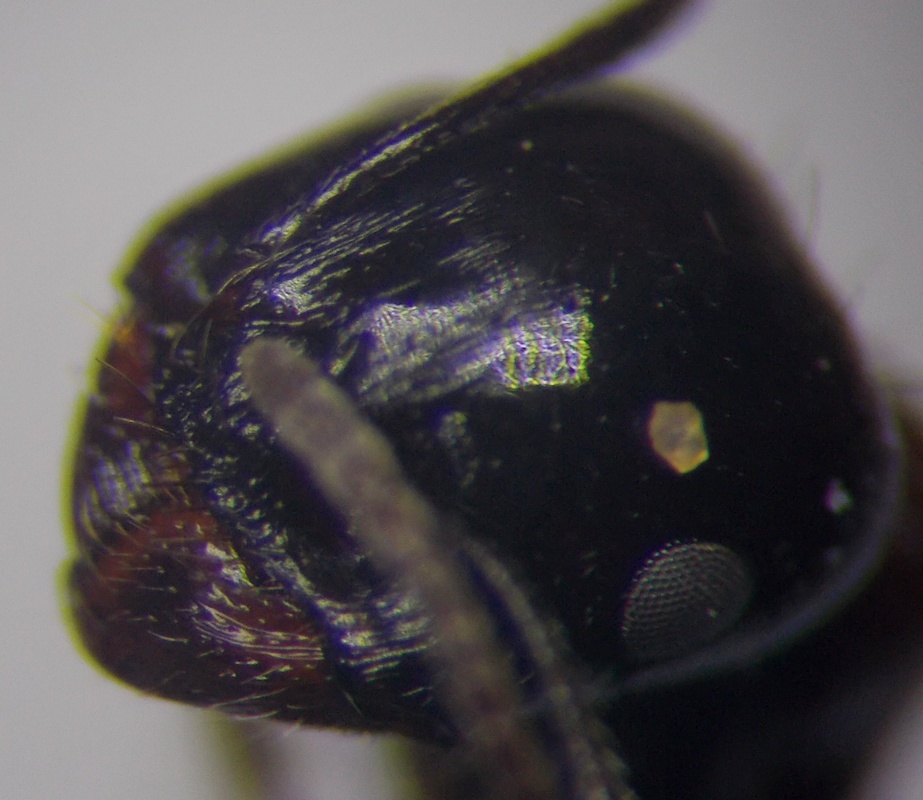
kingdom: Animalia
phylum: Arthropoda
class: Insecta
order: Hymenoptera
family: Formicidae
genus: Messor
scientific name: Messor denticulatus
